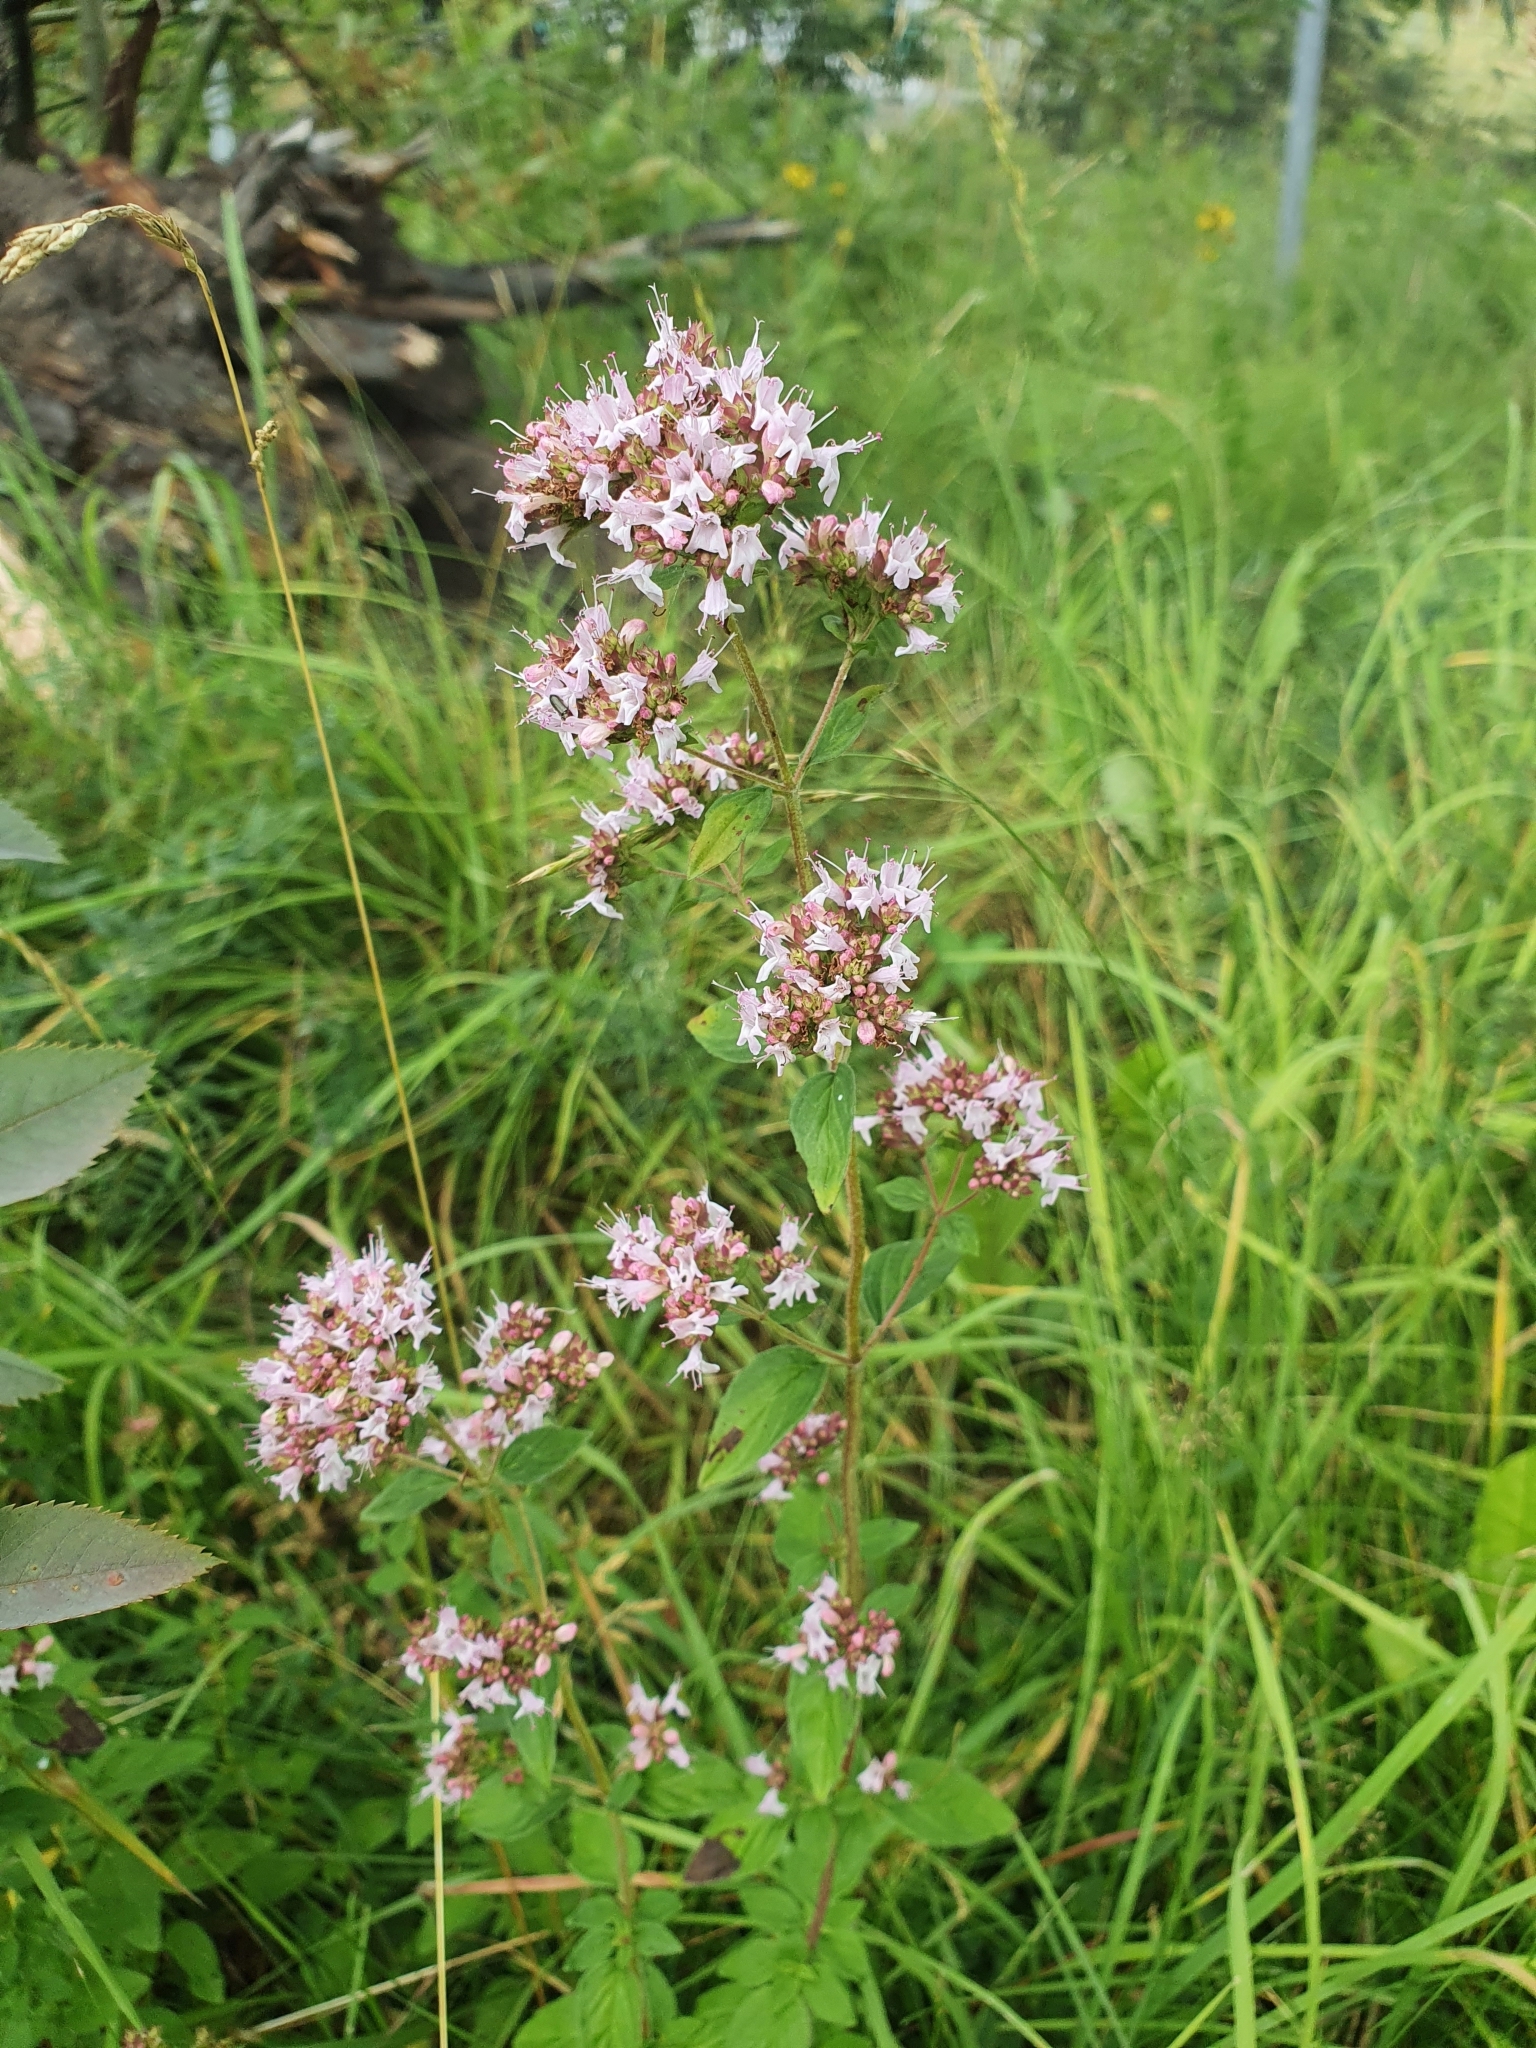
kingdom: Plantae
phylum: Tracheophyta
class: Magnoliopsida
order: Lamiales
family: Lamiaceae
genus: Origanum
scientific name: Origanum vulgare
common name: Wild marjoram
